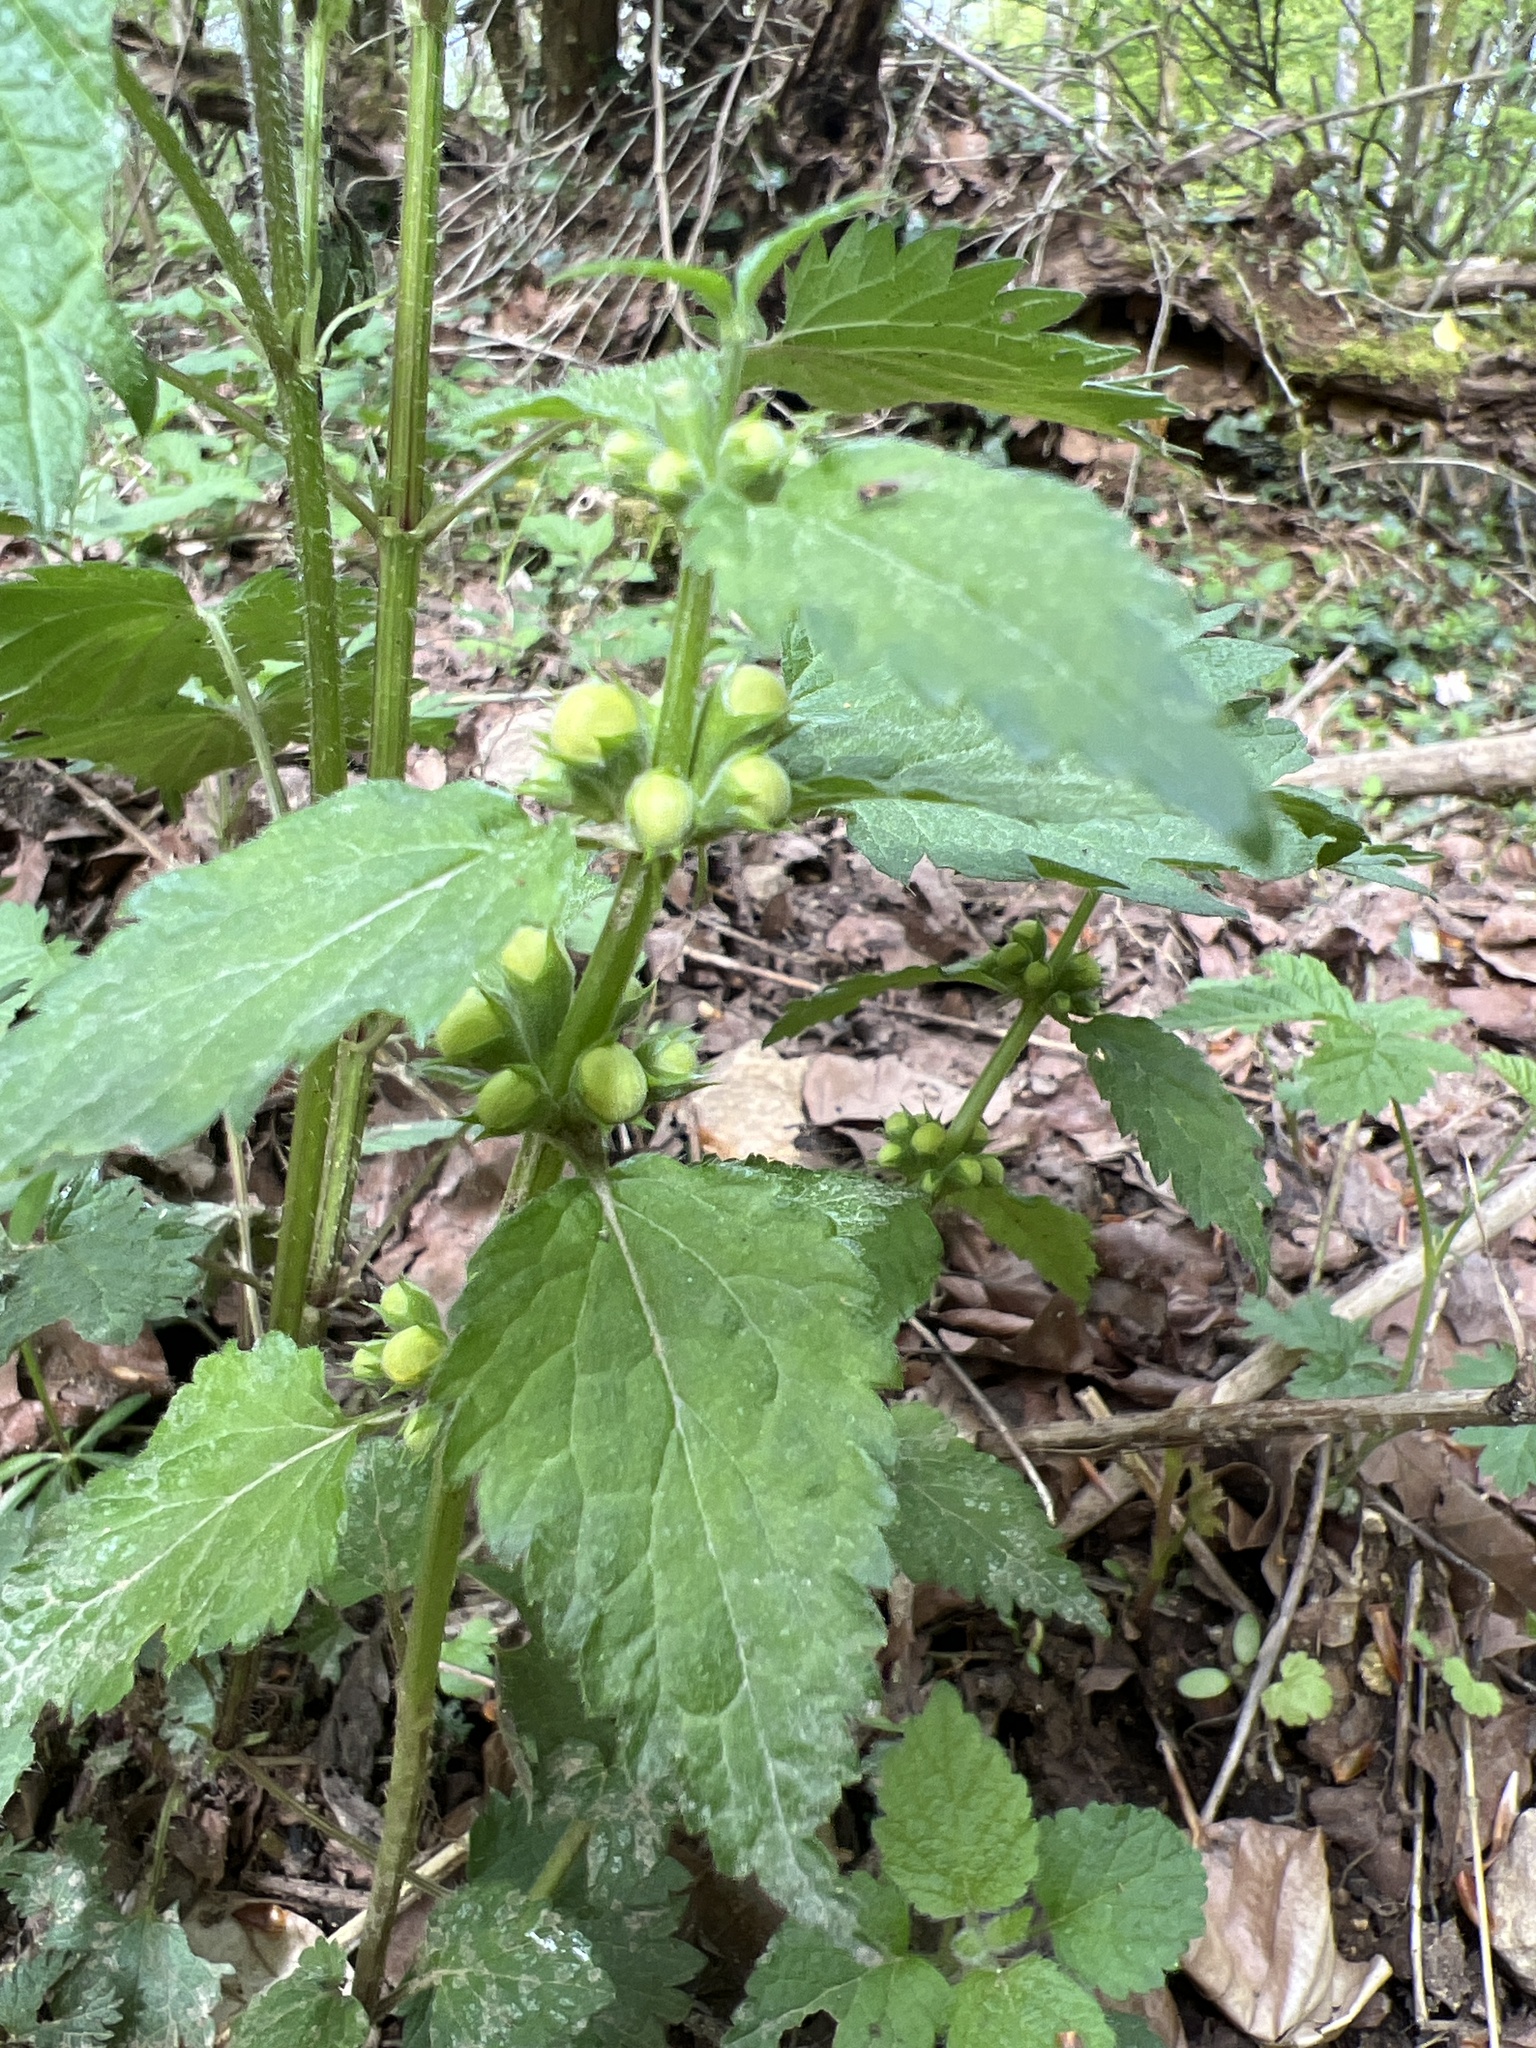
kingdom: Plantae
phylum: Tracheophyta
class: Magnoliopsida
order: Lamiales
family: Lamiaceae
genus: Lamium
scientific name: Lamium galeobdolon
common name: Yellow archangel
